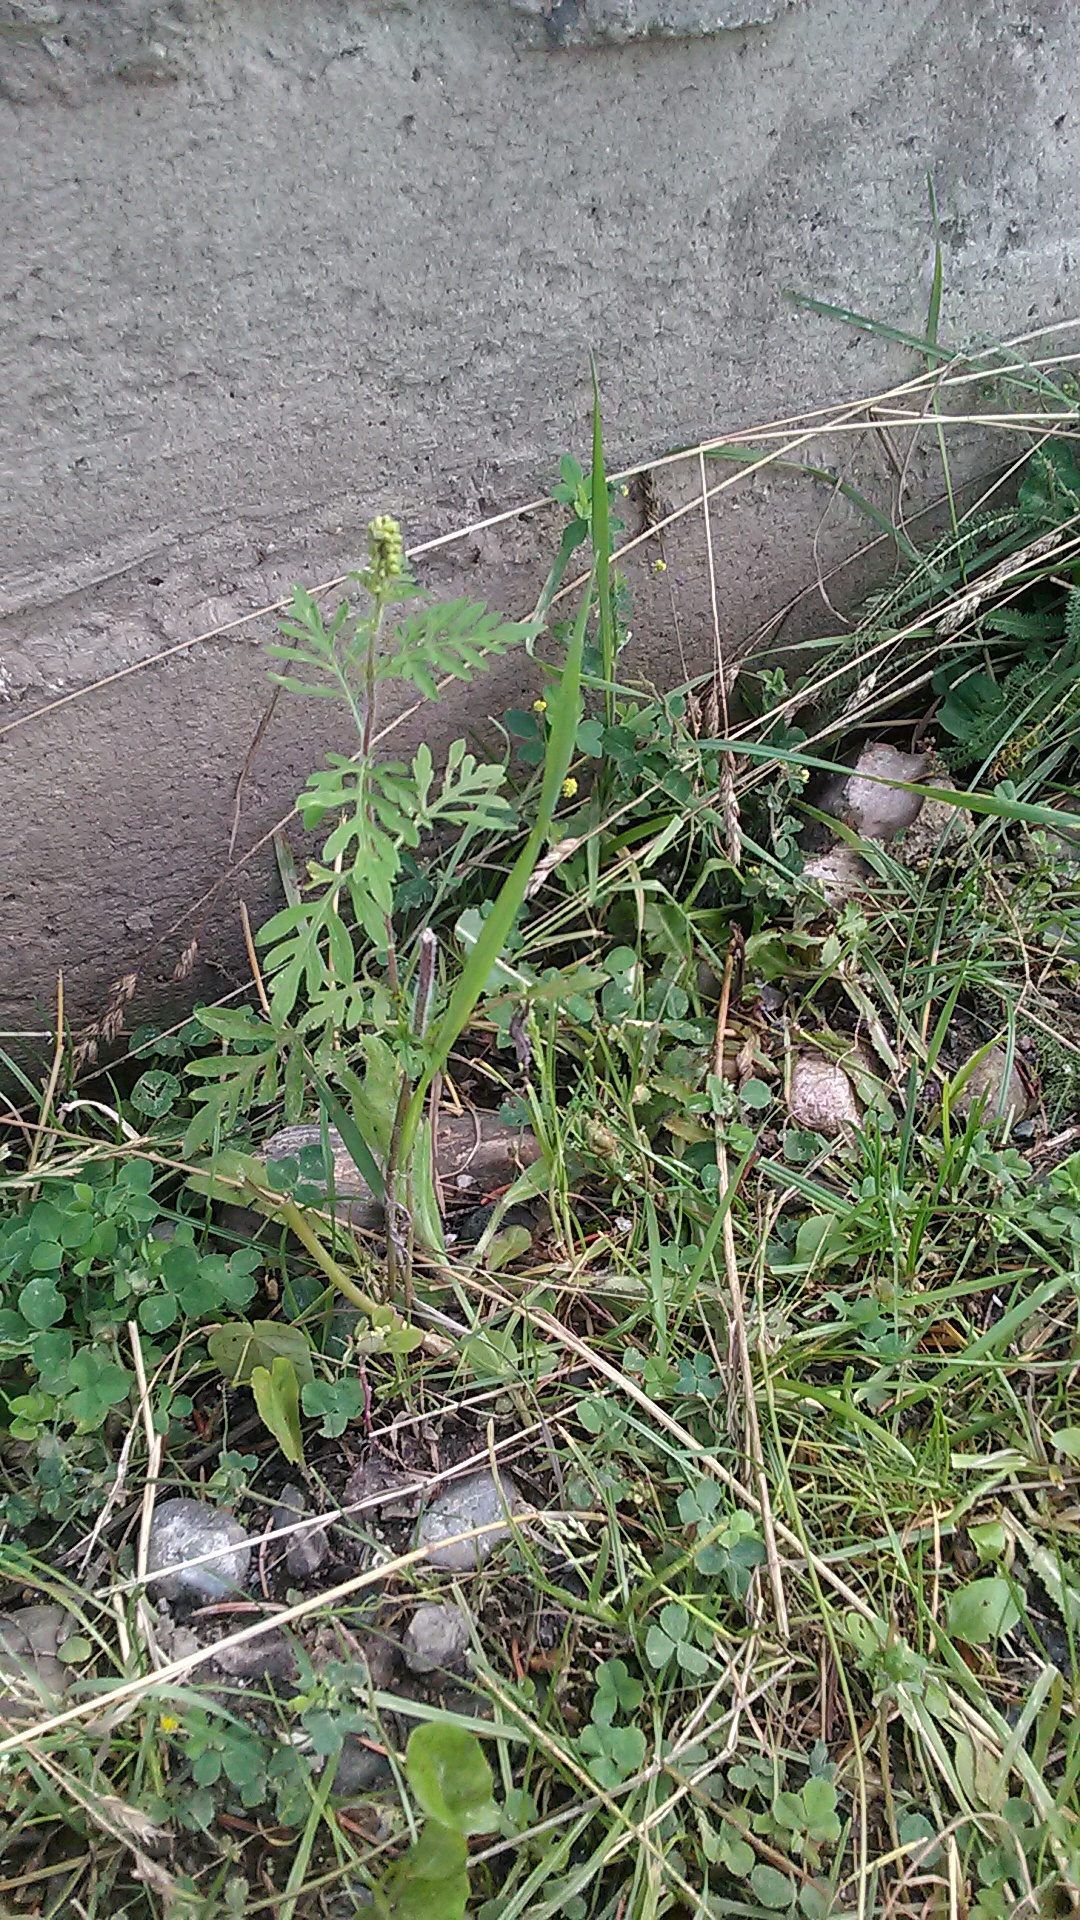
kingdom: Plantae
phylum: Tracheophyta
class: Magnoliopsida
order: Asterales
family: Asteraceae
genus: Ambrosia
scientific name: Ambrosia artemisiifolia
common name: Annual ragweed
